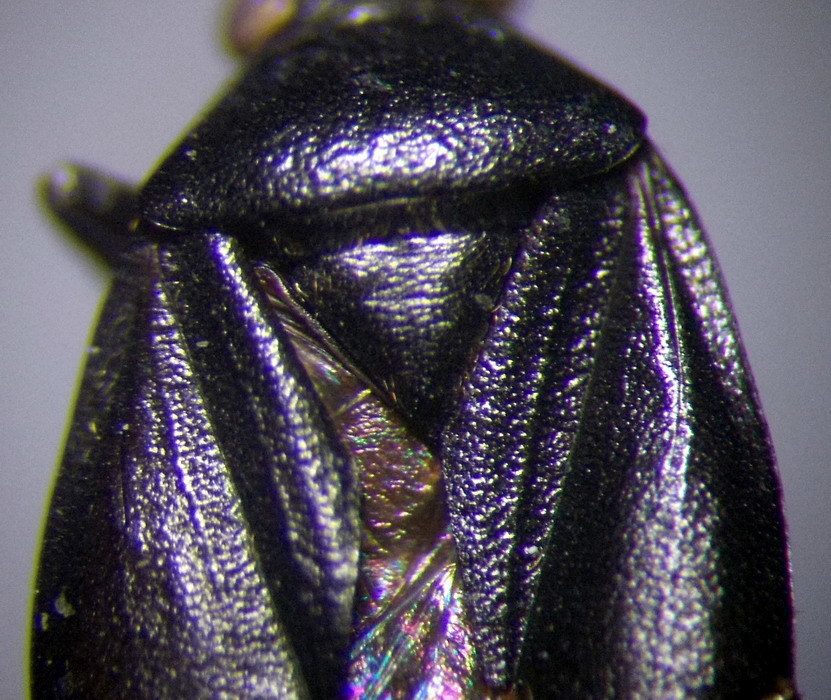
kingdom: Animalia
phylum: Arthropoda
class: Insecta
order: Hemiptera
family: Miridae
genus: Polymerus
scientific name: Polymerus nigritus
